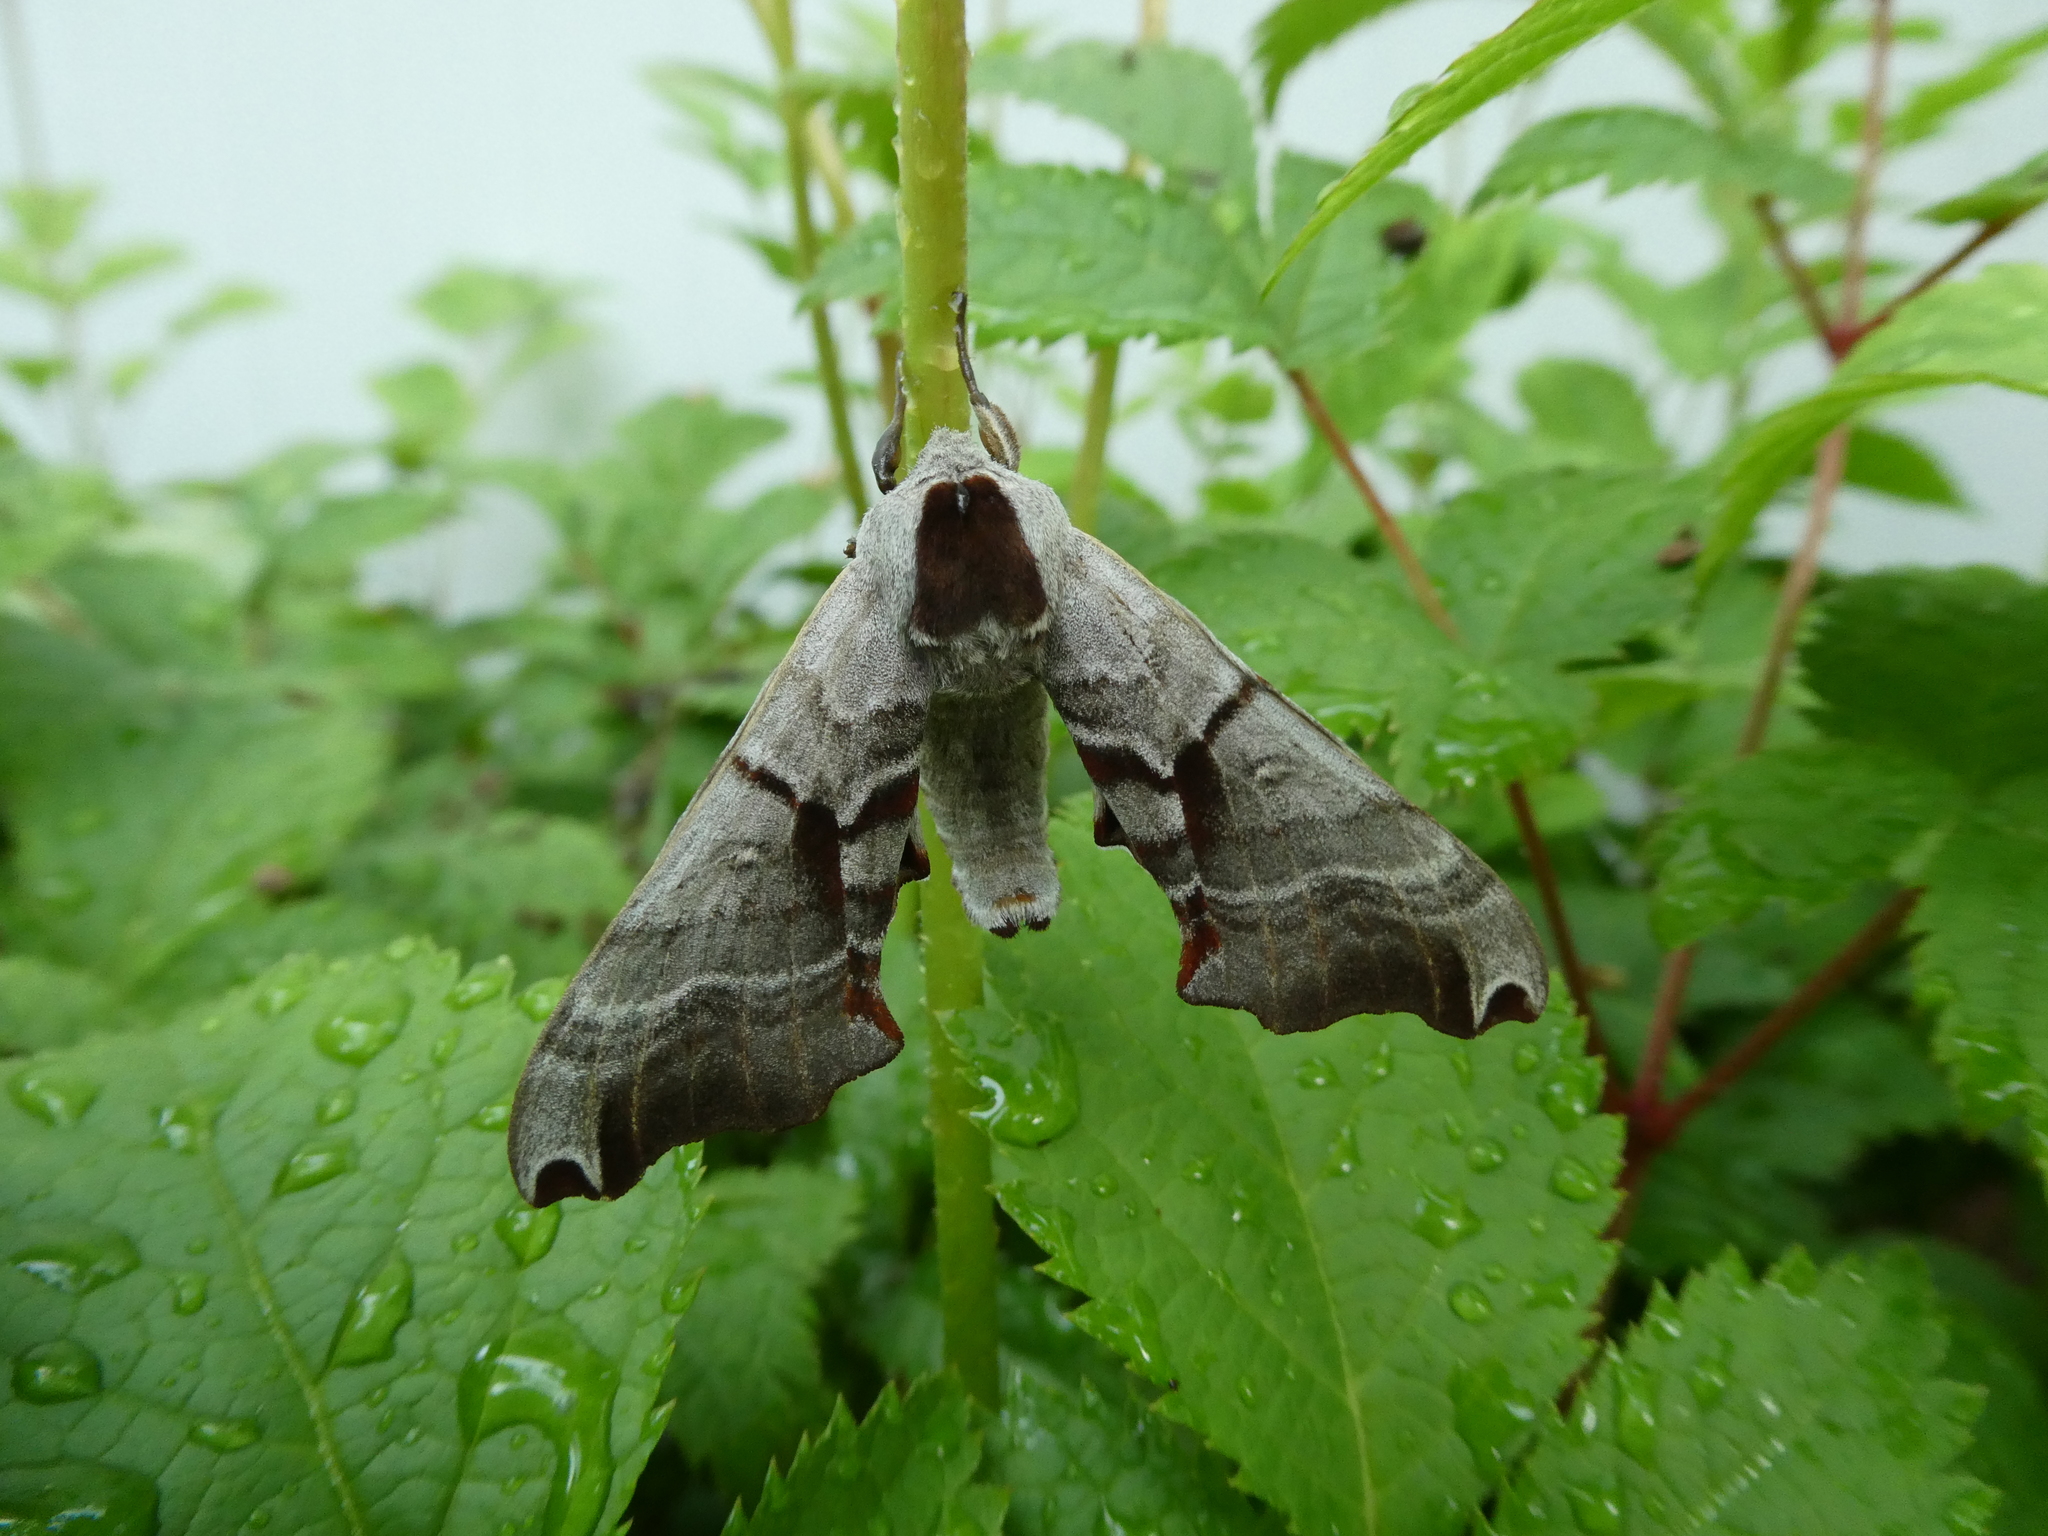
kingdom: Animalia
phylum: Arthropoda
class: Insecta
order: Lepidoptera
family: Sphingidae
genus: Smerinthus
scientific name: Smerinthus jamaicensis
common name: Twin spotted sphinx
